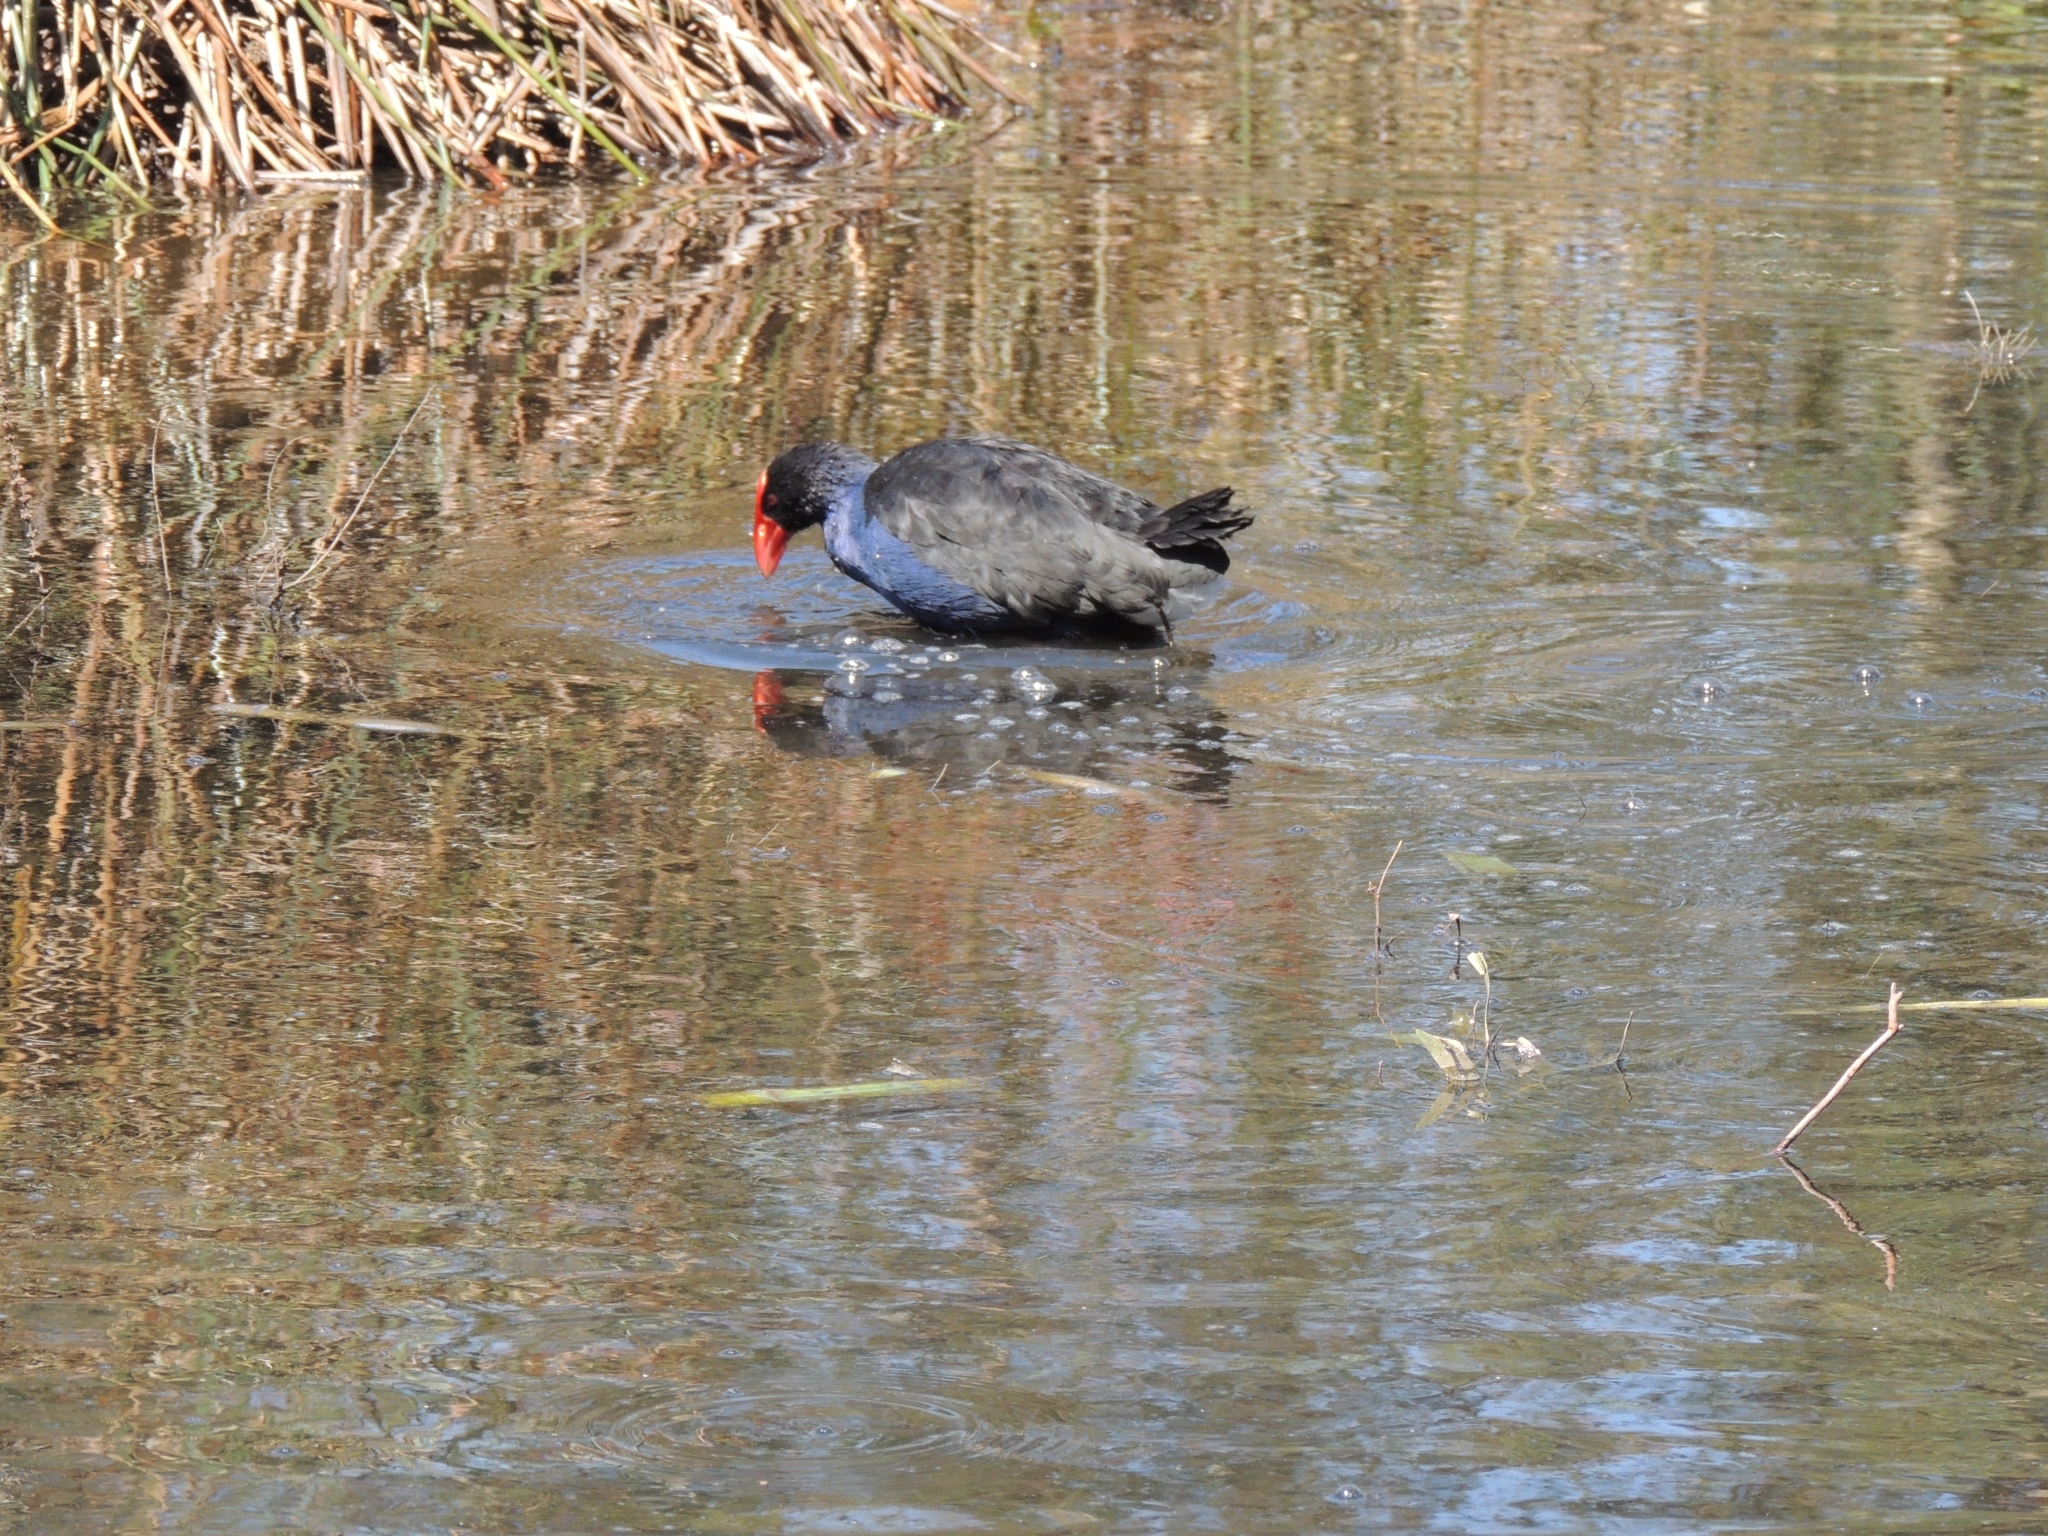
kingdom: Animalia
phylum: Chordata
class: Aves
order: Gruiformes
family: Rallidae
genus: Porphyrio
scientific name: Porphyrio melanotus
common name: Australasian swamphen
